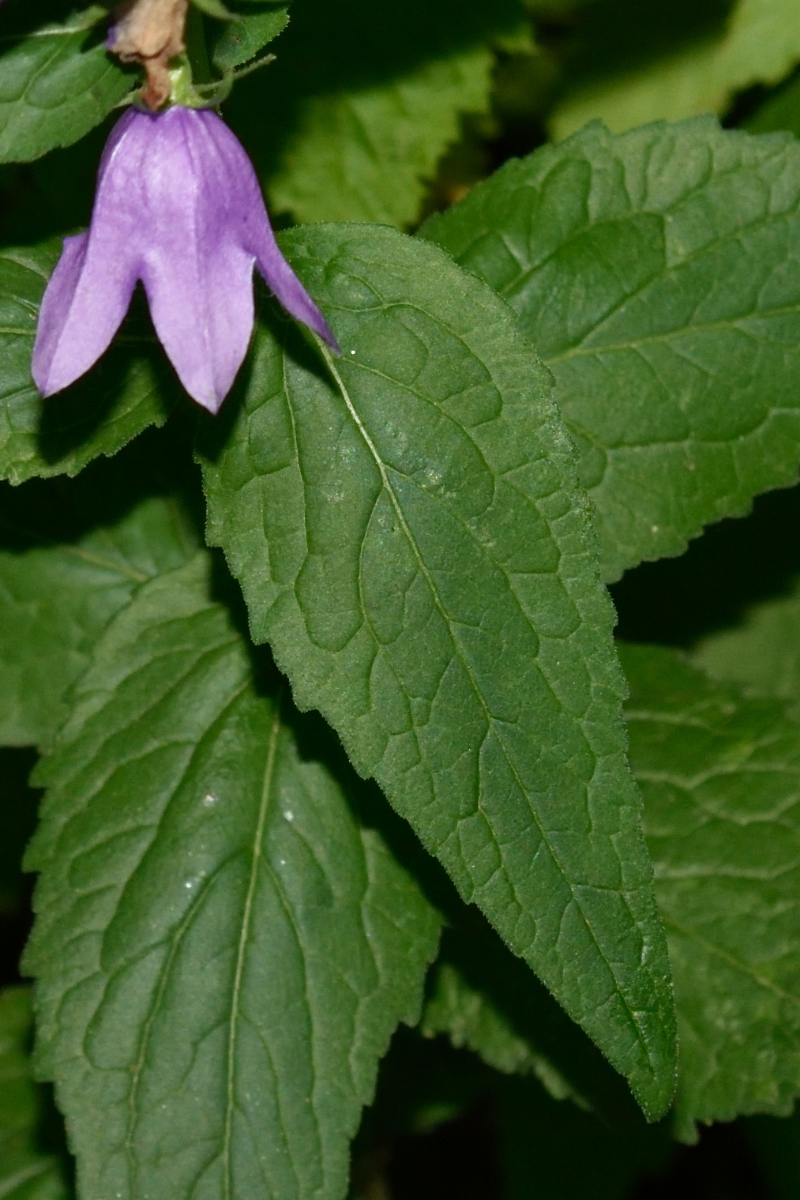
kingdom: Plantae
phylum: Tracheophyta
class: Magnoliopsida
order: Asterales
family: Campanulaceae
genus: Campanula
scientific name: Campanula rapunculoides
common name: Creeping bellflower
